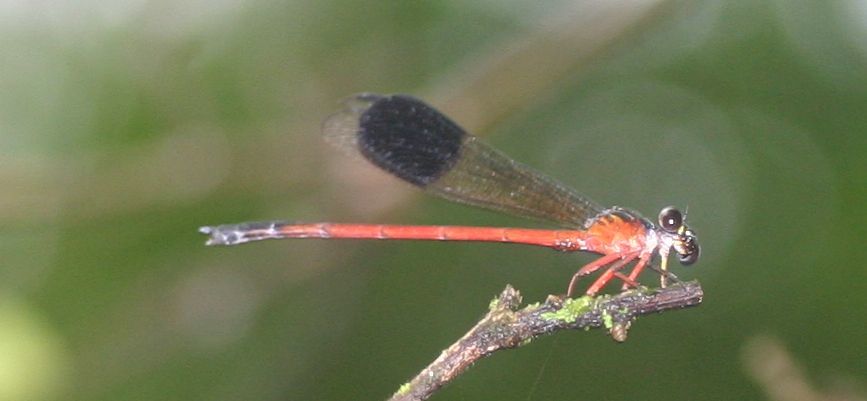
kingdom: Animalia
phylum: Arthropoda
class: Insecta
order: Odonata
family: Euphaeidae
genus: Euphaea
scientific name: Euphaea fraseri
